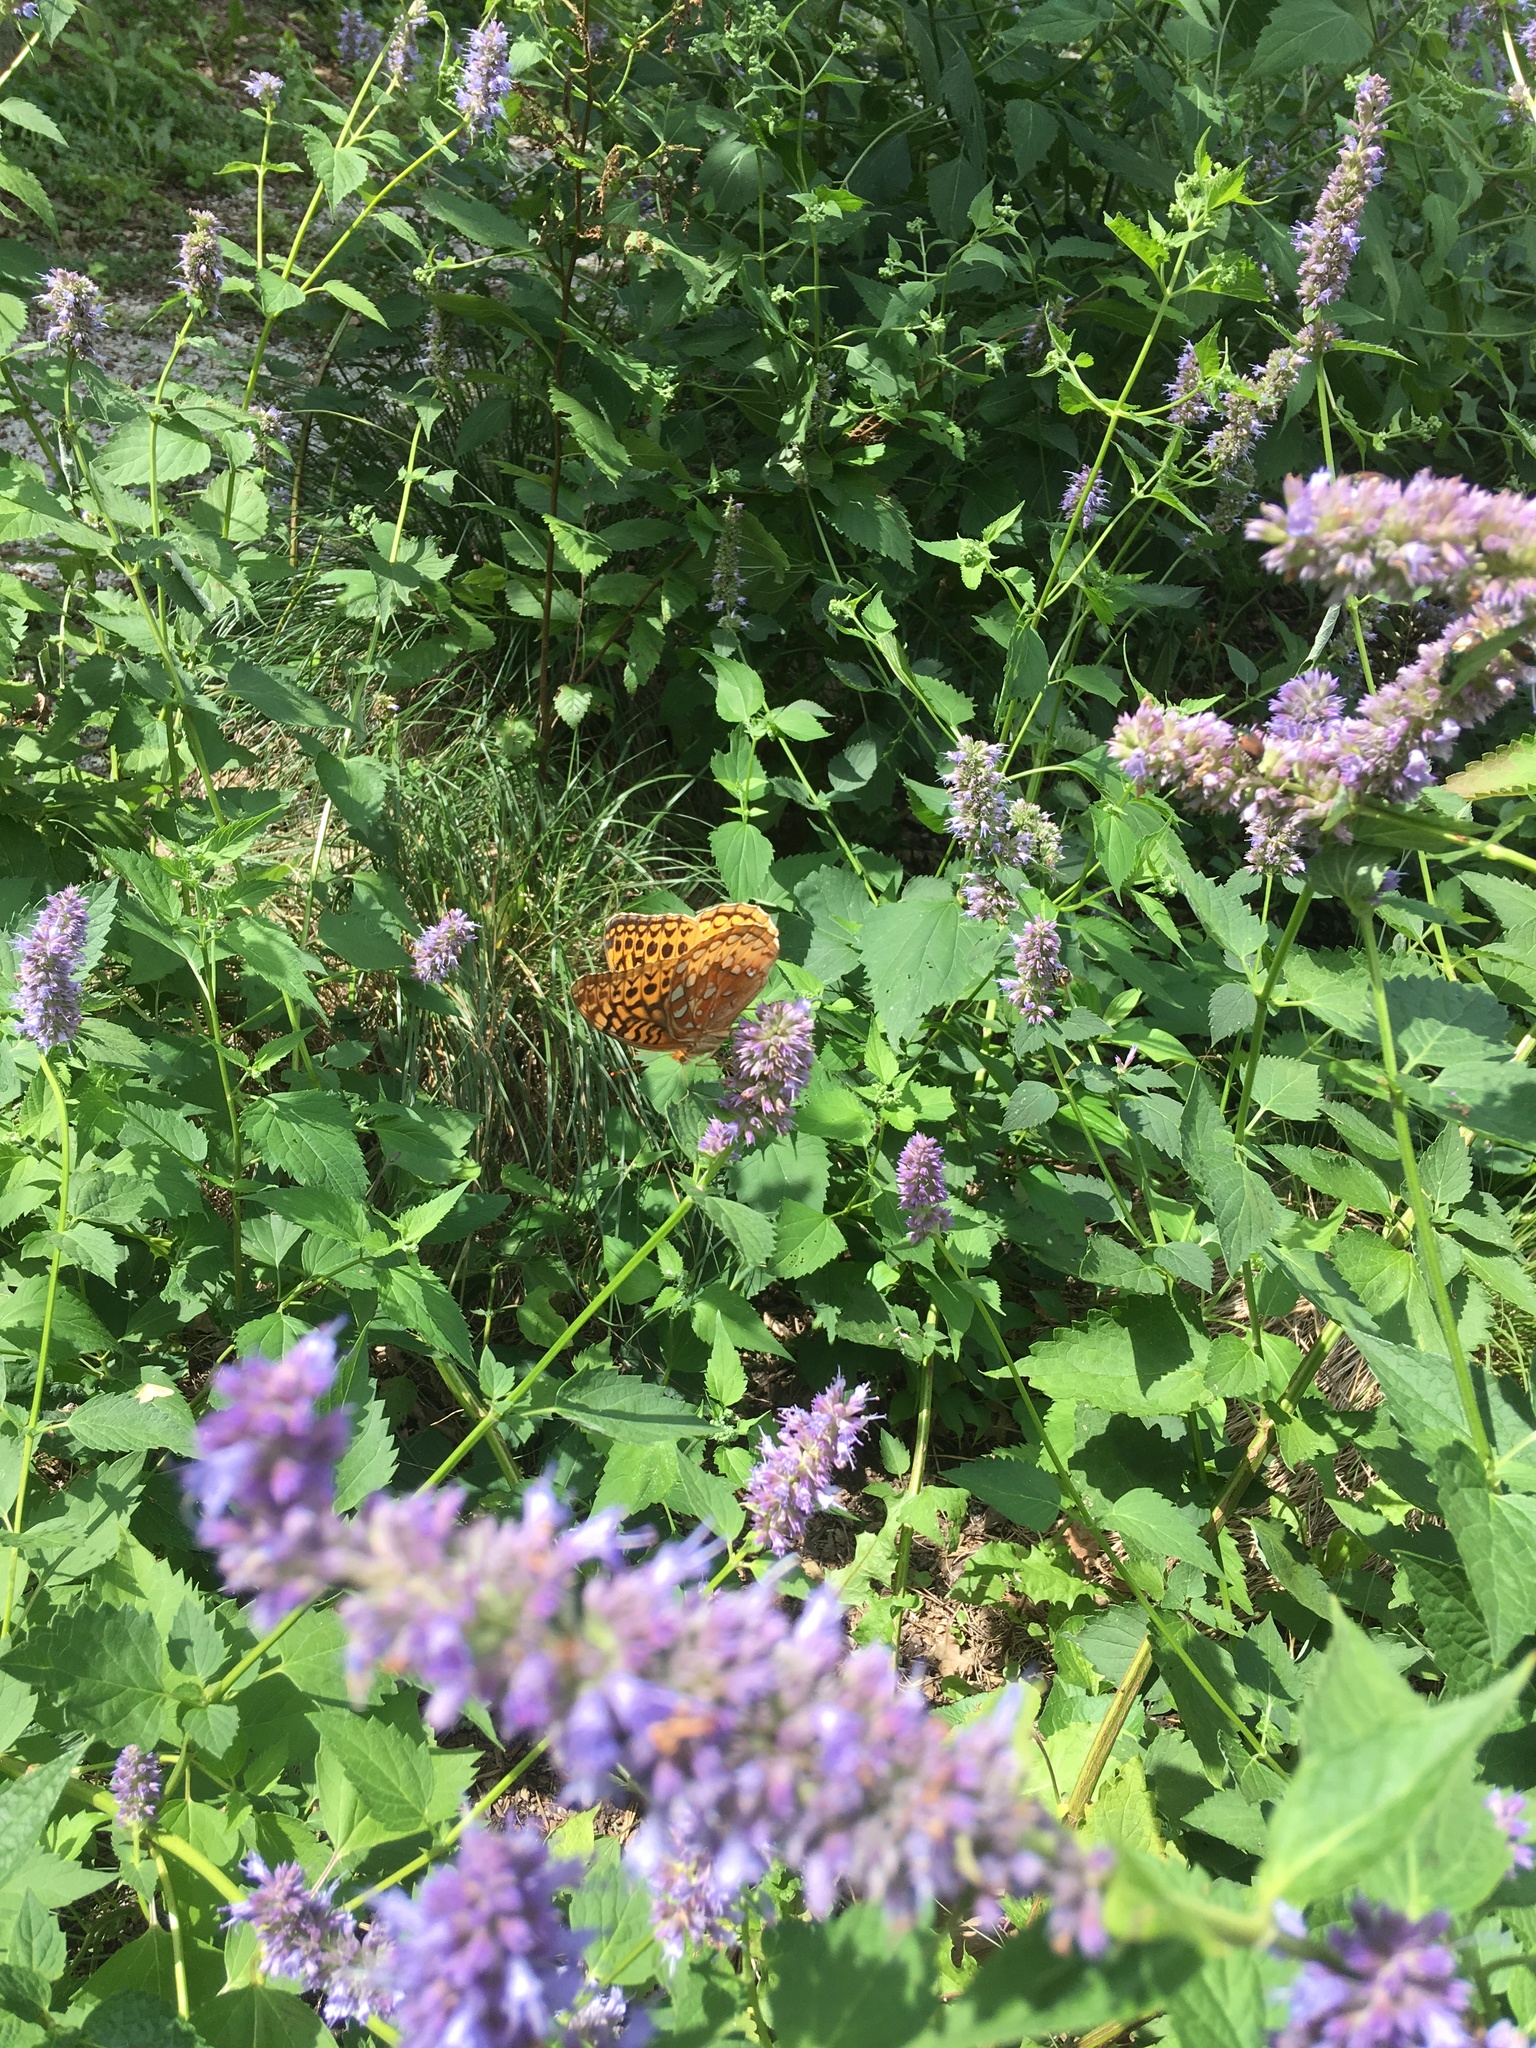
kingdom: Animalia
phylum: Arthropoda
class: Insecta
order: Lepidoptera
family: Nymphalidae
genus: Speyeria
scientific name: Speyeria cybele
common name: Great spangled fritillary
